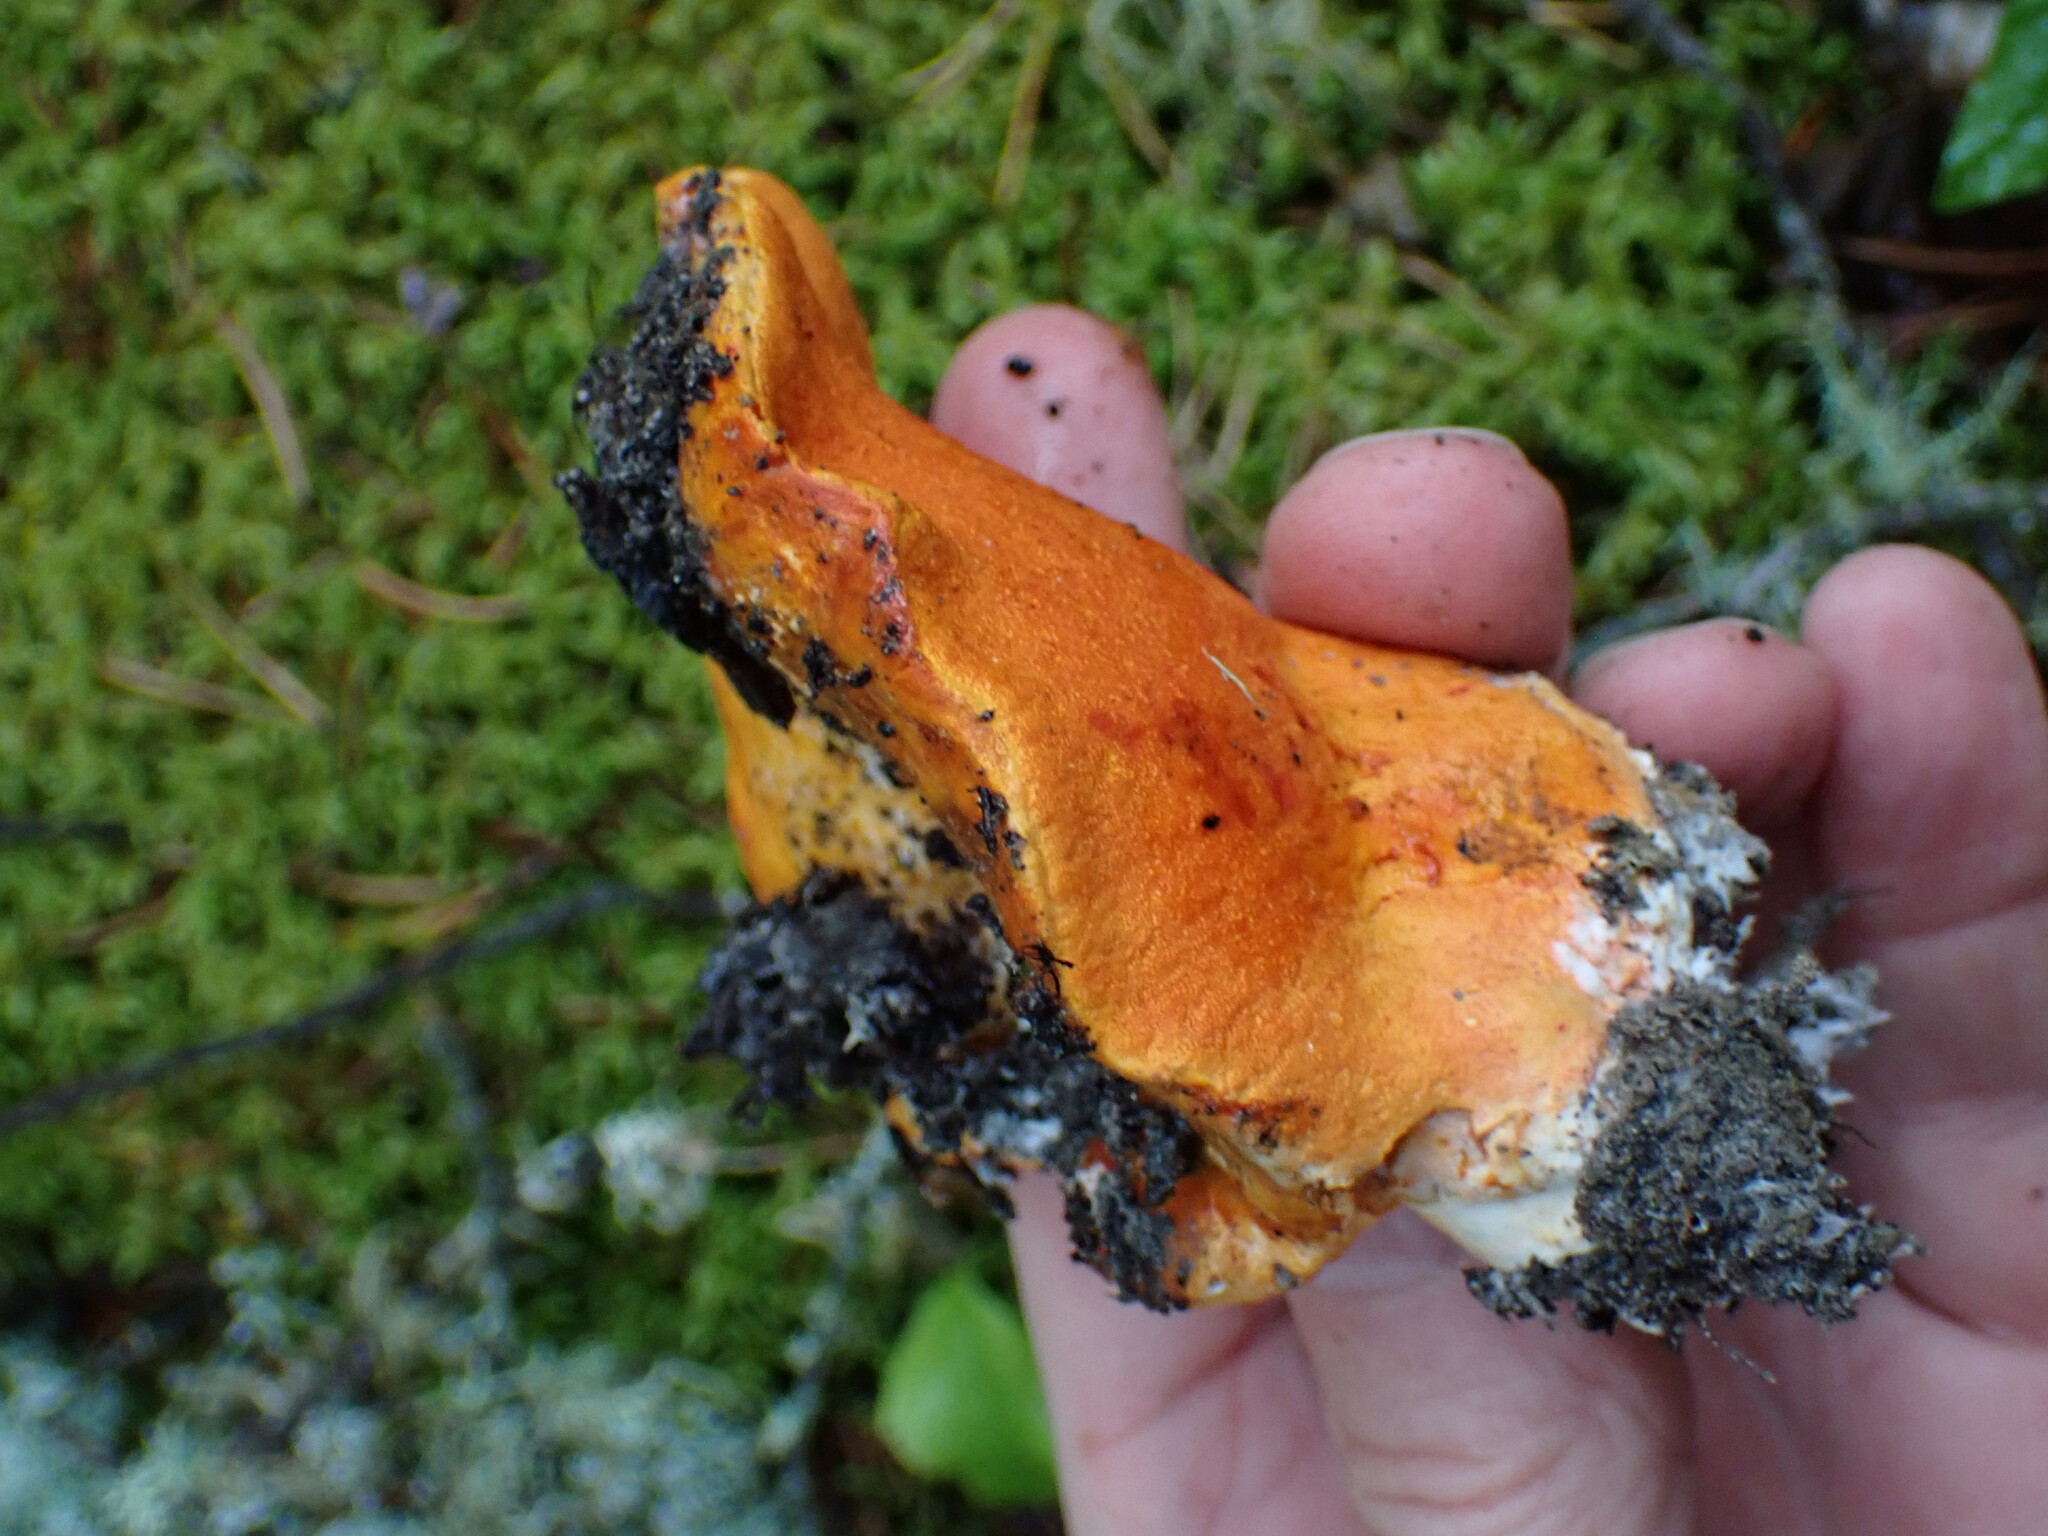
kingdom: Fungi
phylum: Ascomycota
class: Sordariomycetes
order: Hypocreales
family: Hypocreaceae
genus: Hypomyces
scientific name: Hypomyces lactifluorum
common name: Lobster mushroom
